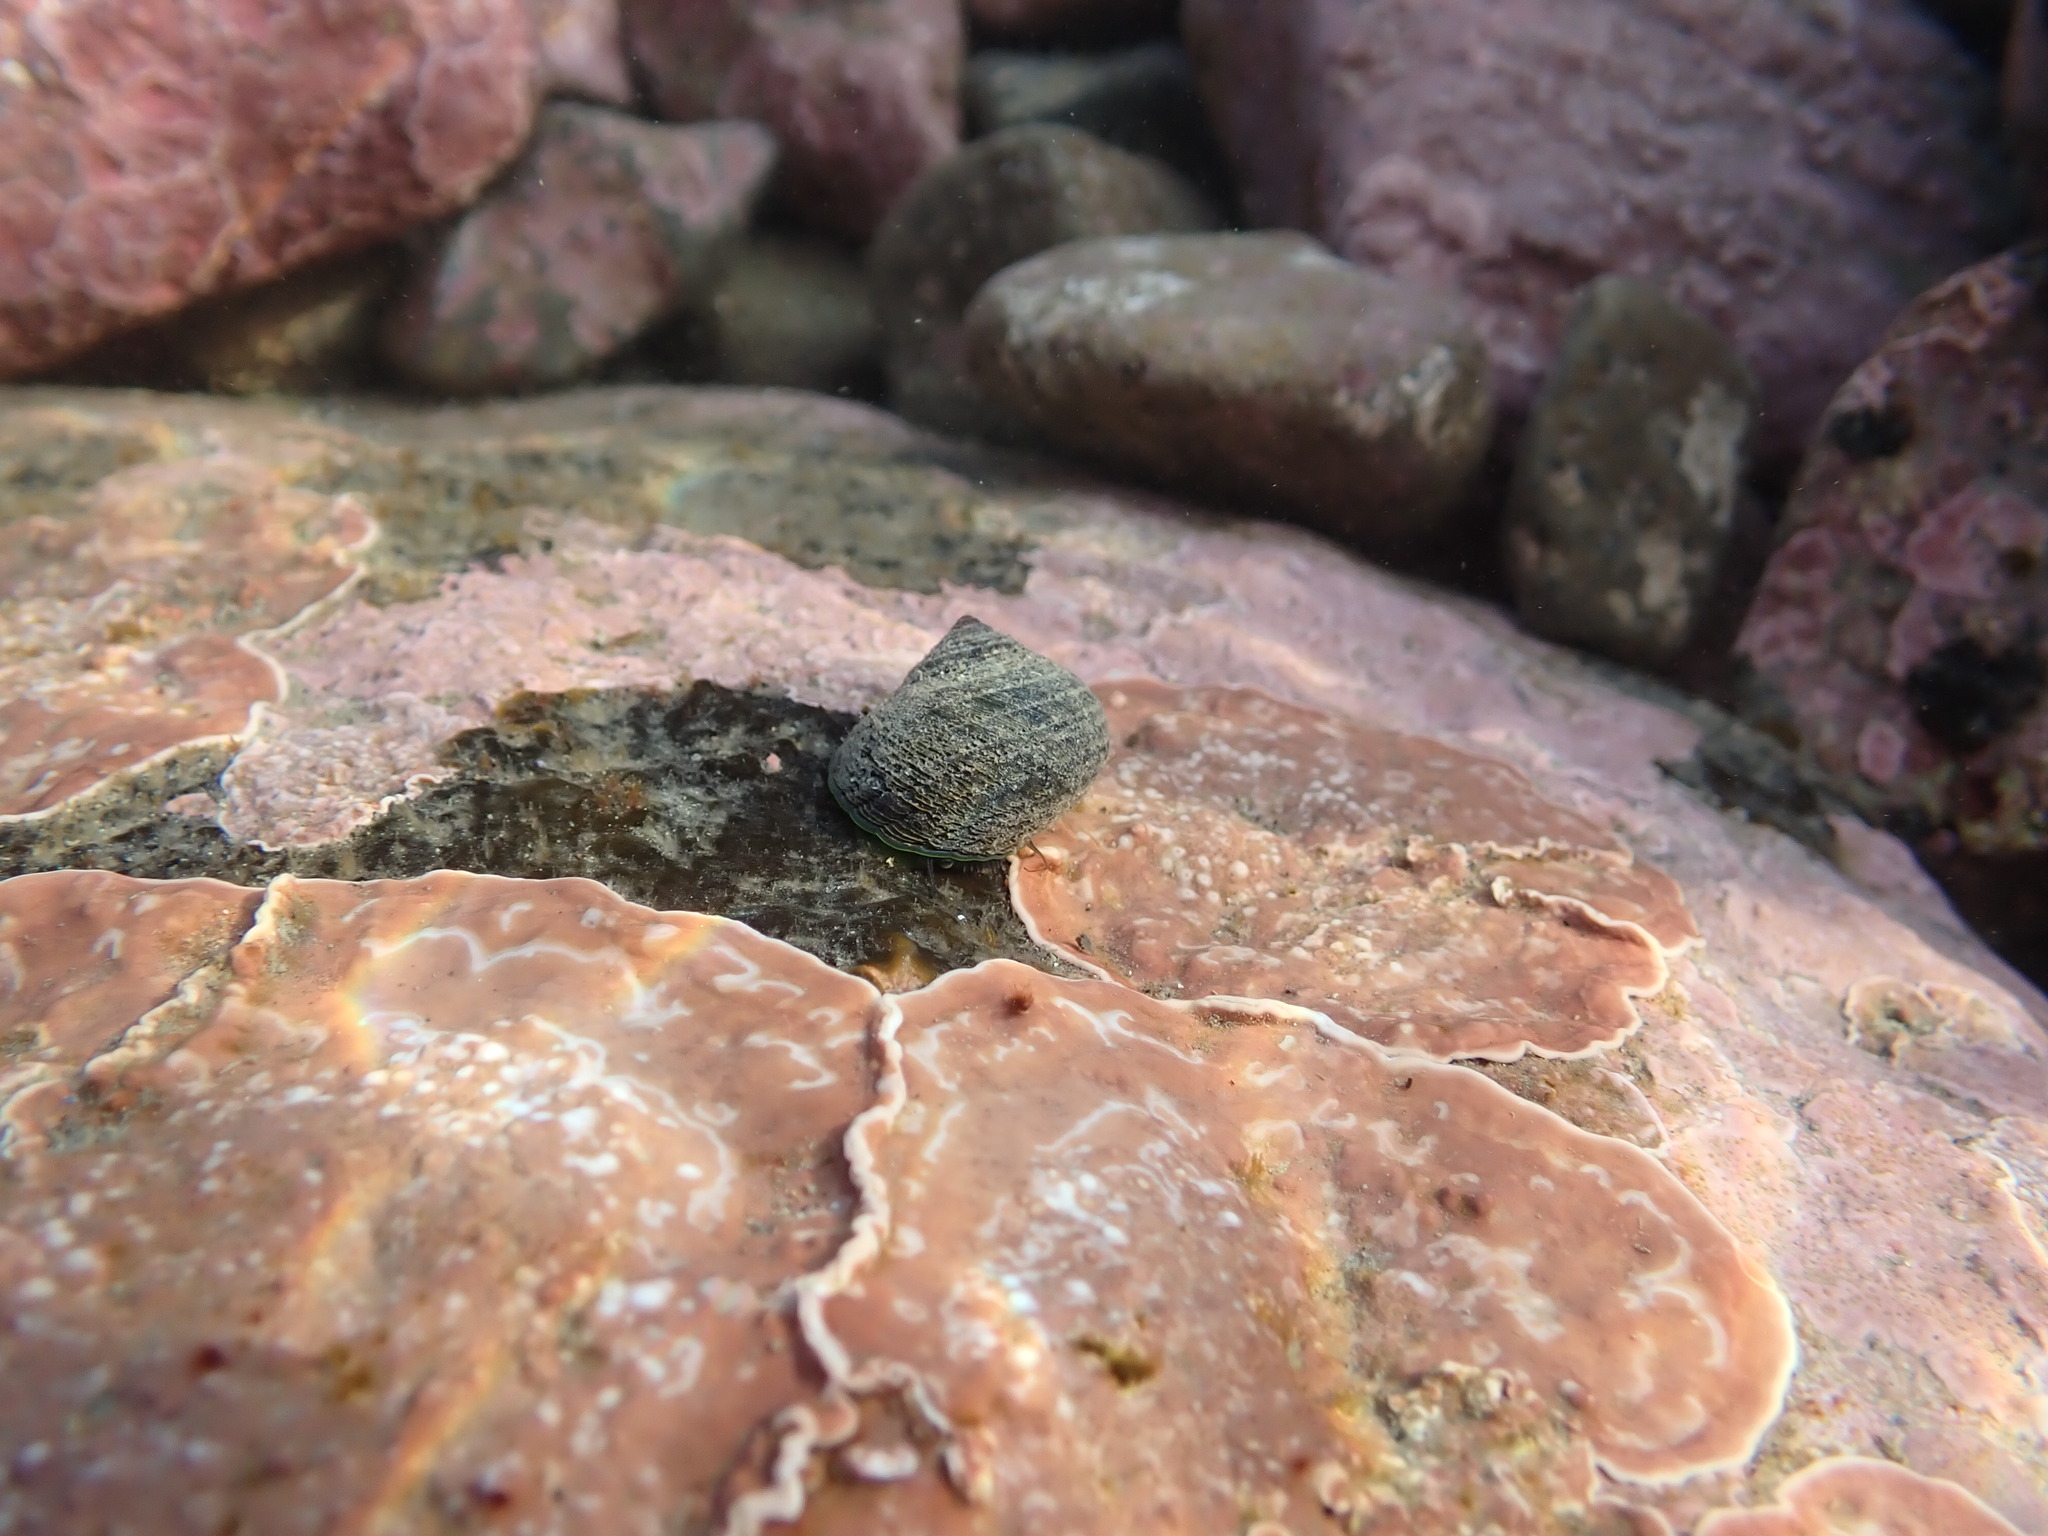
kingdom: Animalia
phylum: Mollusca
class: Gastropoda
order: Trochida
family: Trochidae
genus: Diloma
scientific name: Diloma aethiops
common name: Scorched monodont
